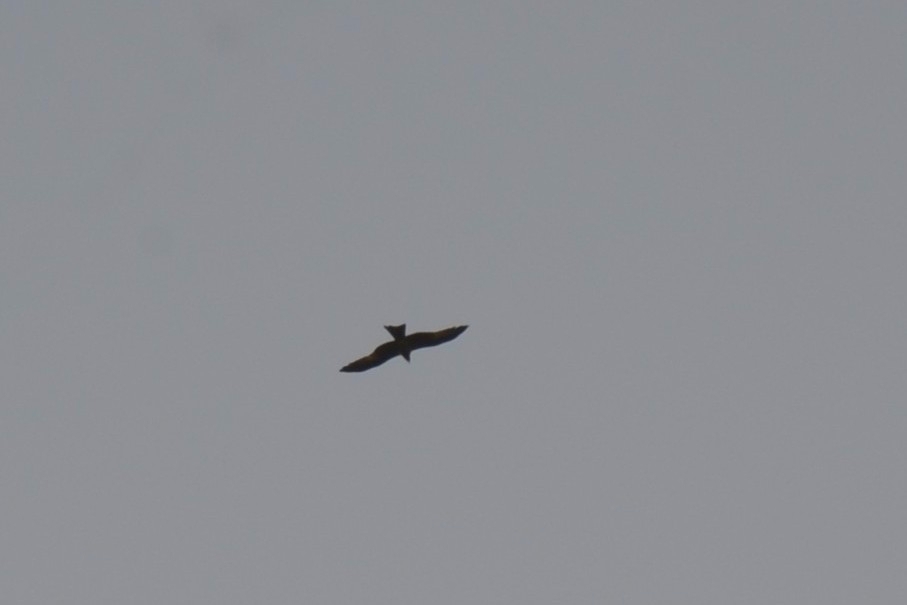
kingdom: Animalia
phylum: Chordata
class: Aves
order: Accipitriformes
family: Accipitridae
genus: Milvus
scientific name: Milvus migrans
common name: Black kite
